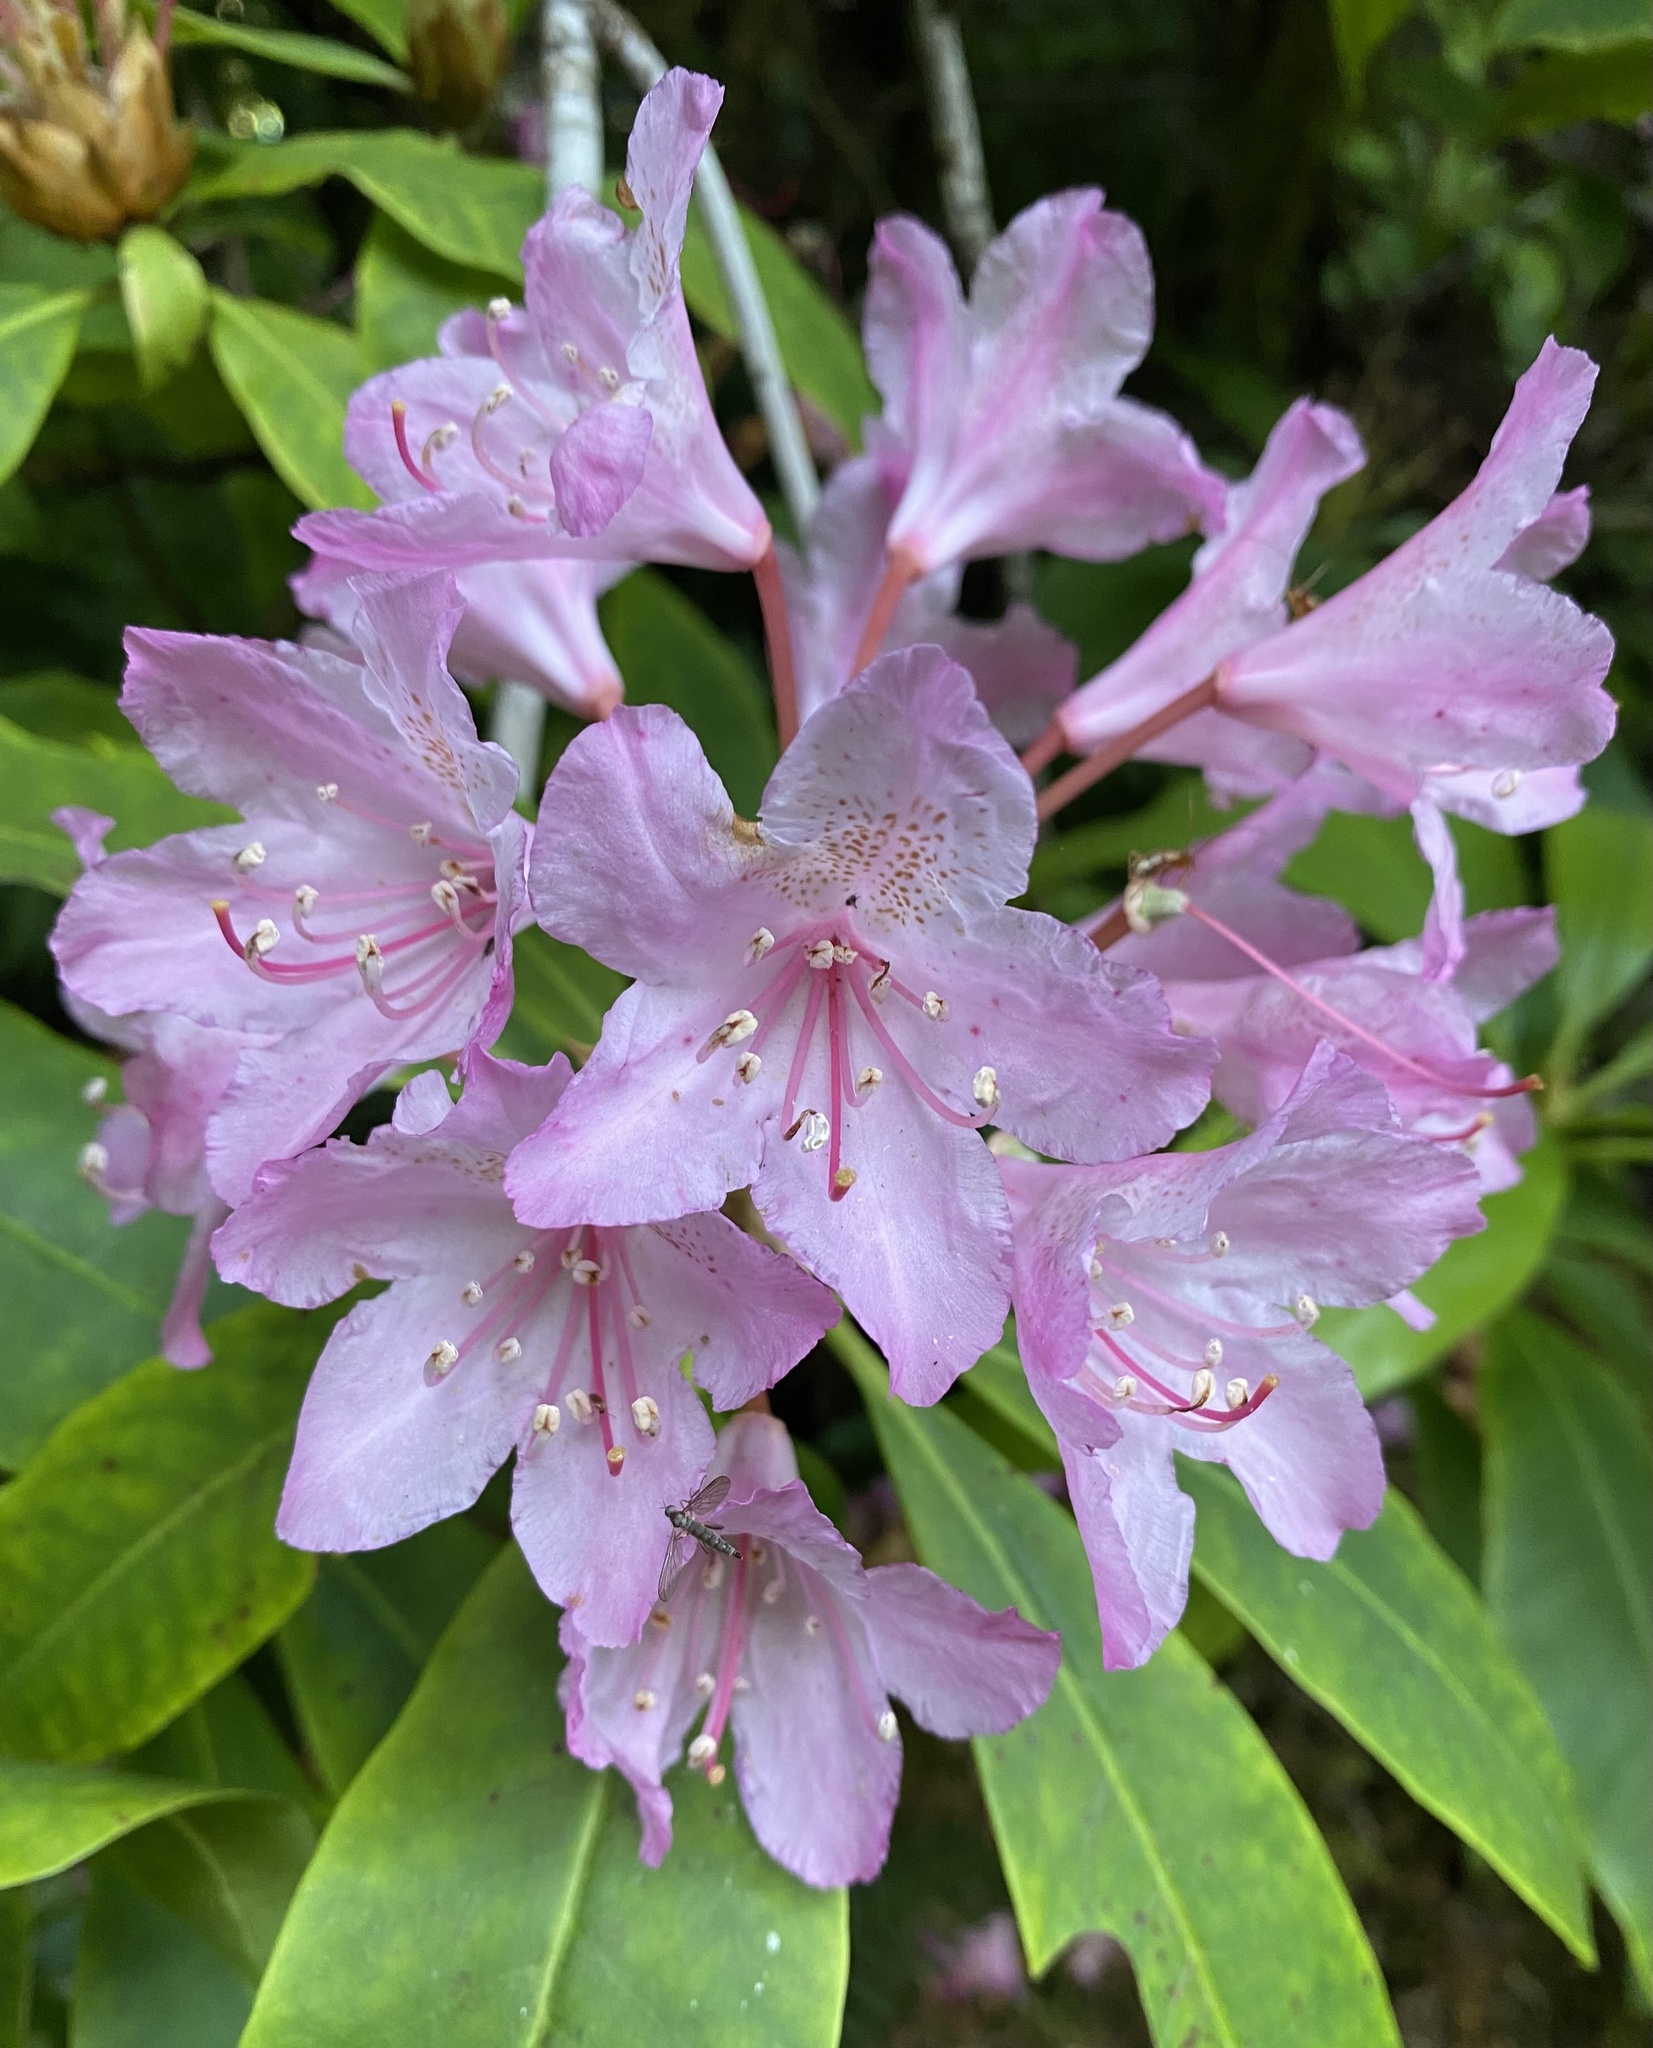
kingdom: Plantae
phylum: Tracheophyta
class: Magnoliopsida
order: Ericales
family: Ericaceae
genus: Rhododendron
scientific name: Rhododendron macrophyllum
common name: California rose bay
